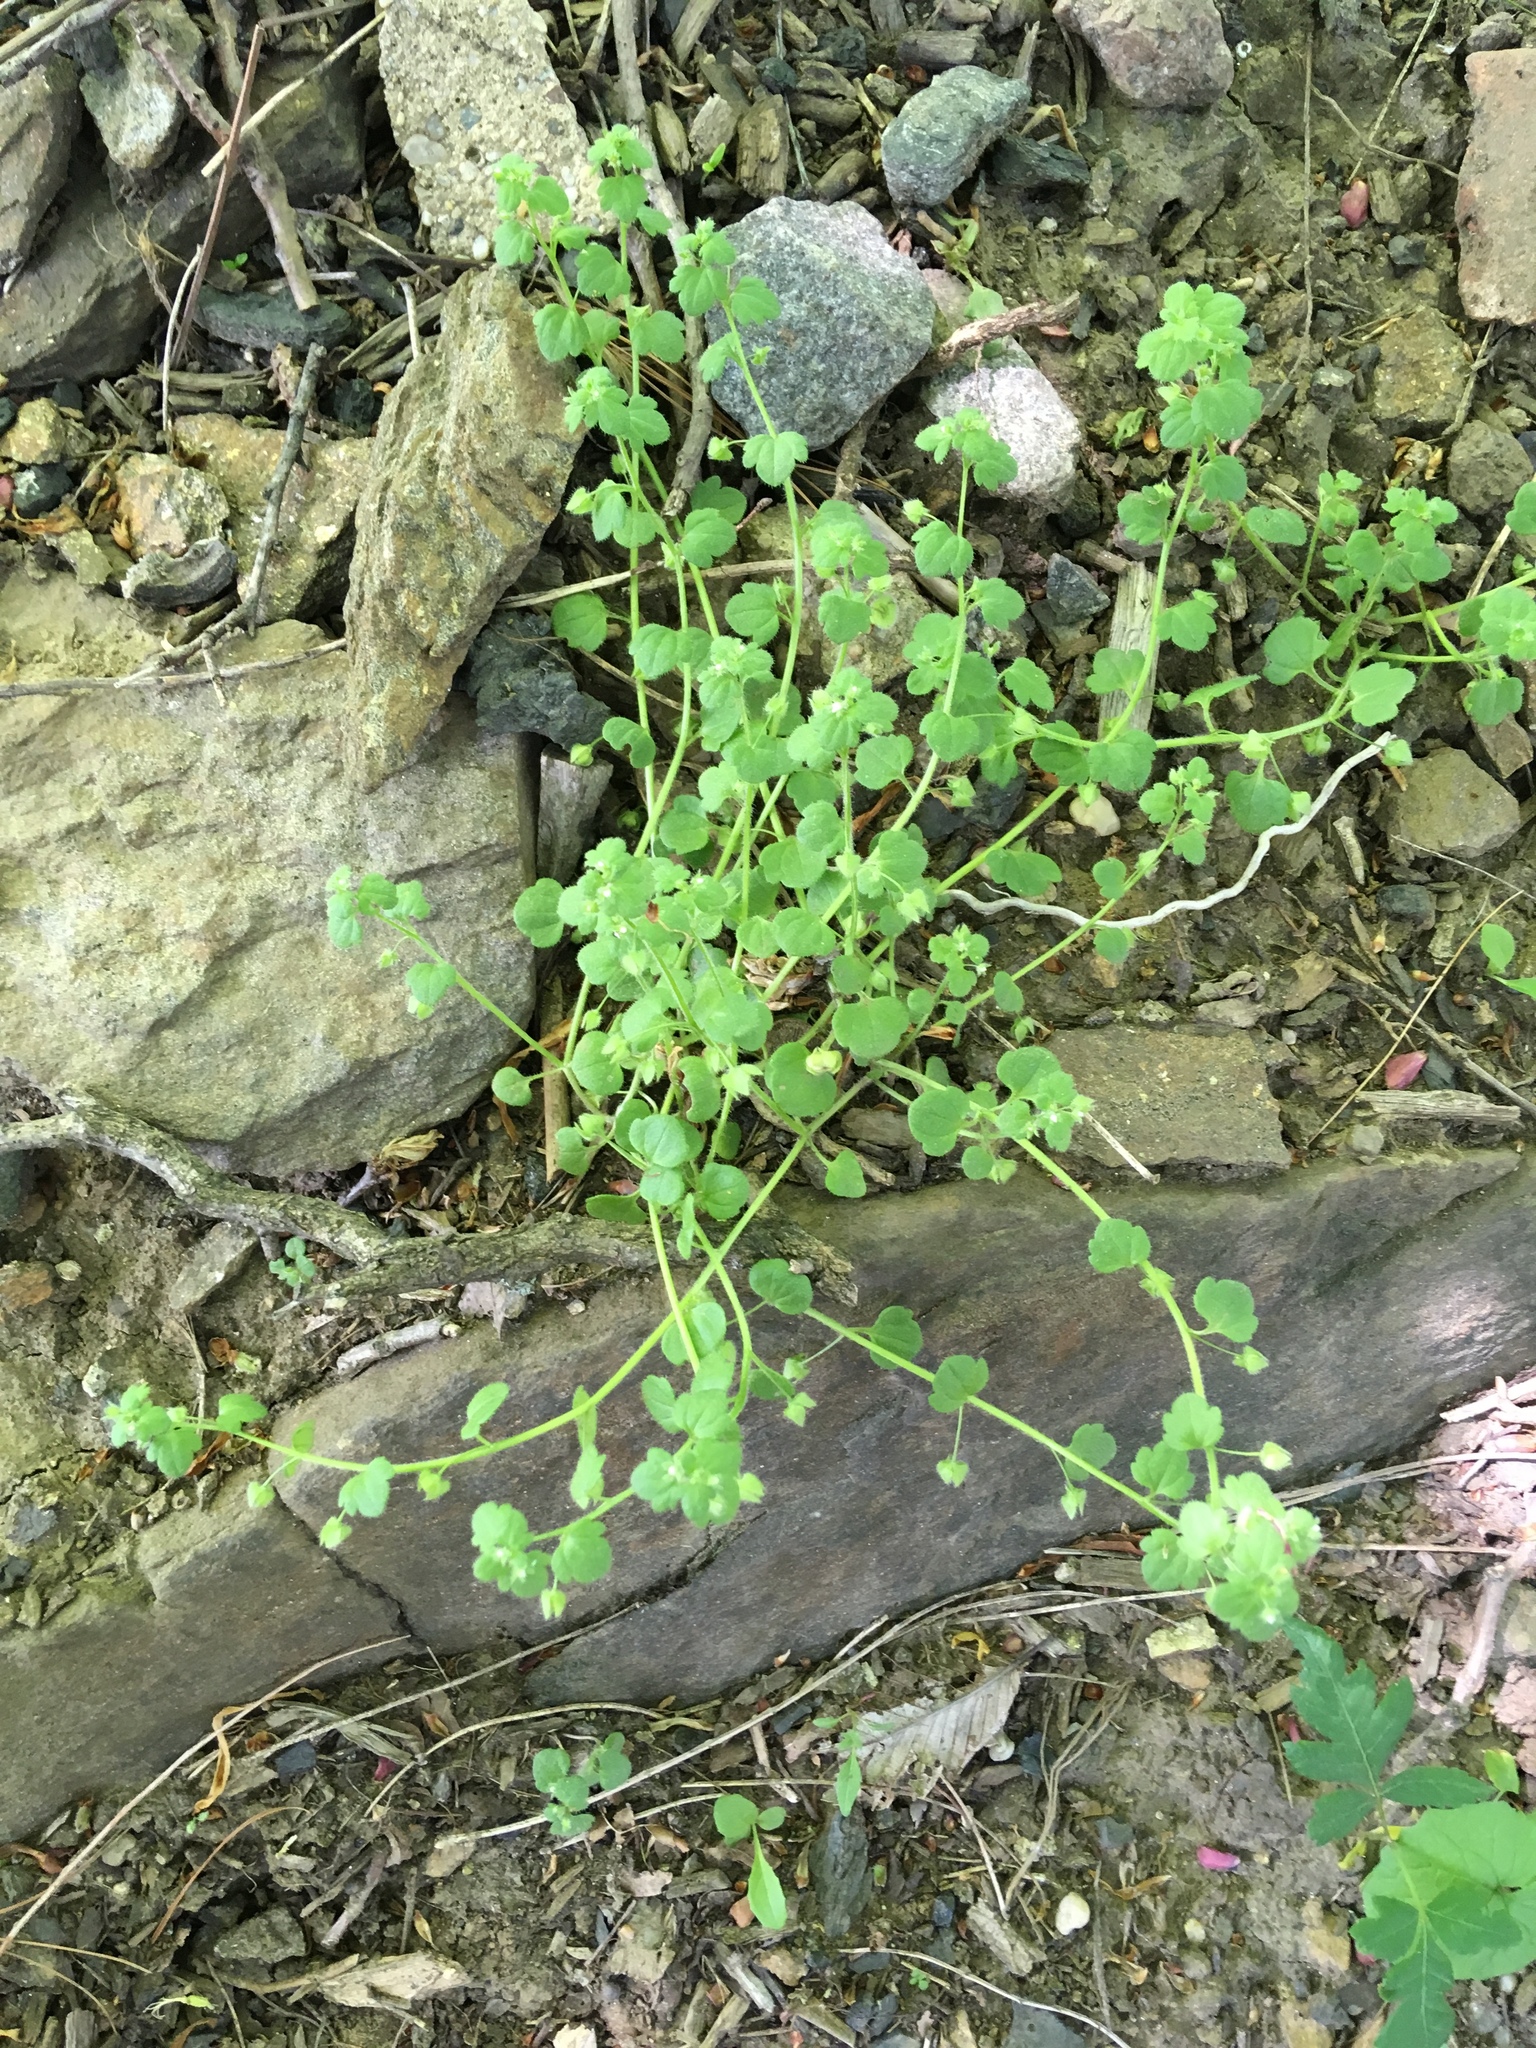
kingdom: Plantae
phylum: Tracheophyta
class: Magnoliopsida
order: Lamiales
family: Plantaginaceae
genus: Veronica
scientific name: Veronica hederifolia
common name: Ivy-leaved speedwell
